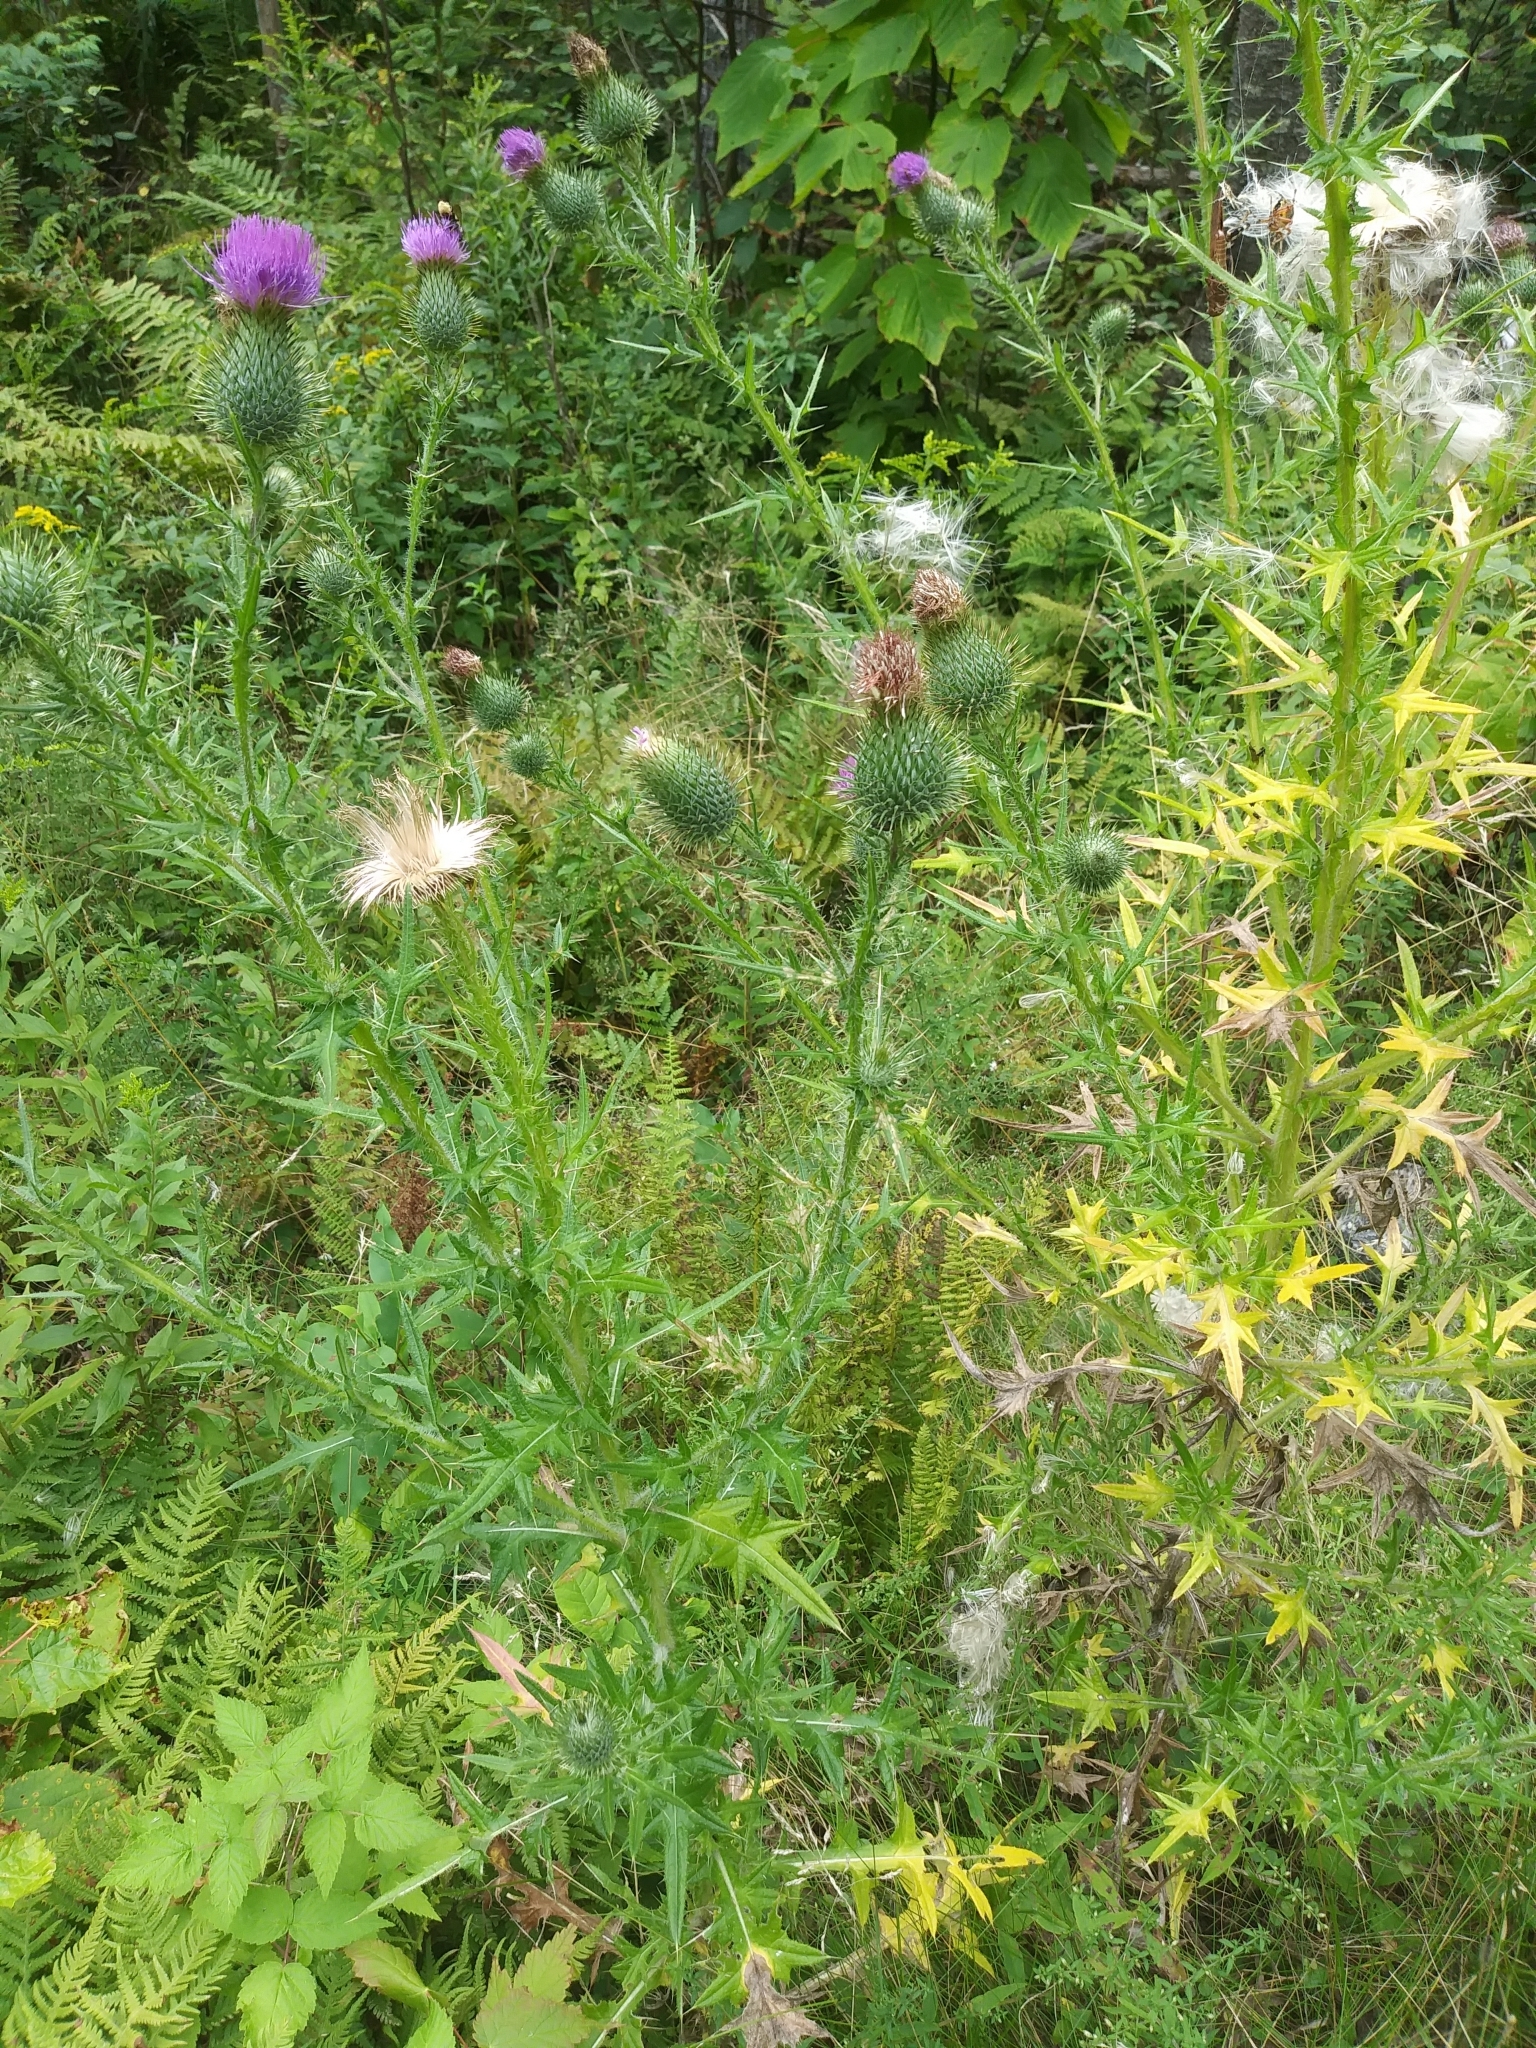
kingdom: Plantae
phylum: Tracheophyta
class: Magnoliopsida
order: Asterales
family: Asteraceae
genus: Cirsium
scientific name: Cirsium vulgare
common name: Bull thistle
